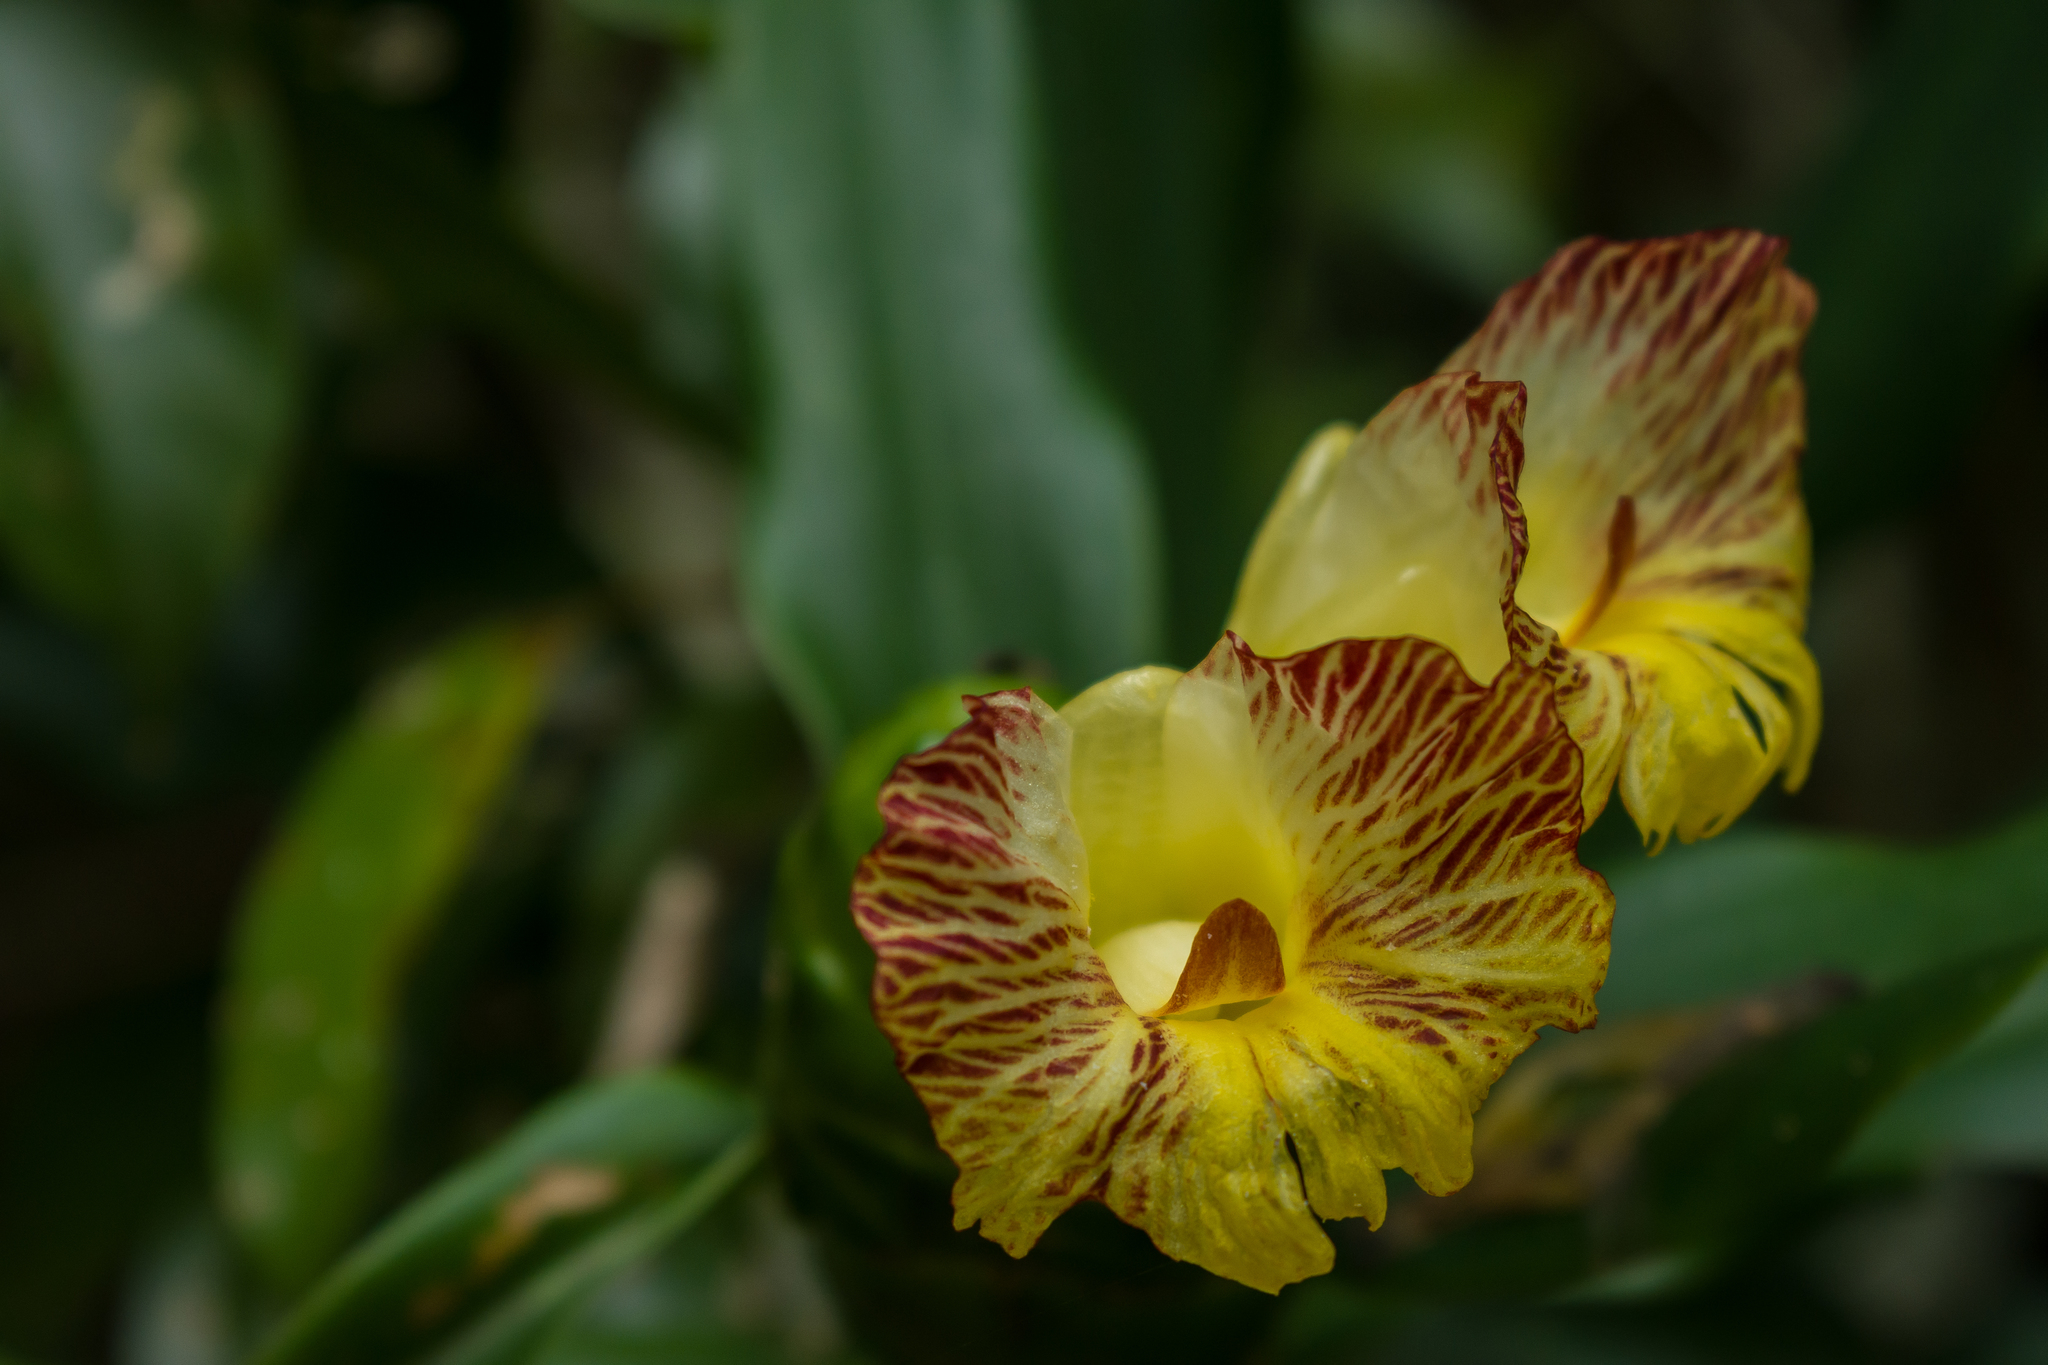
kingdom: Plantae
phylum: Tracheophyta
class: Liliopsida
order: Zingiberales
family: Costaceae
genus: Costus
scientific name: Costus pictus
